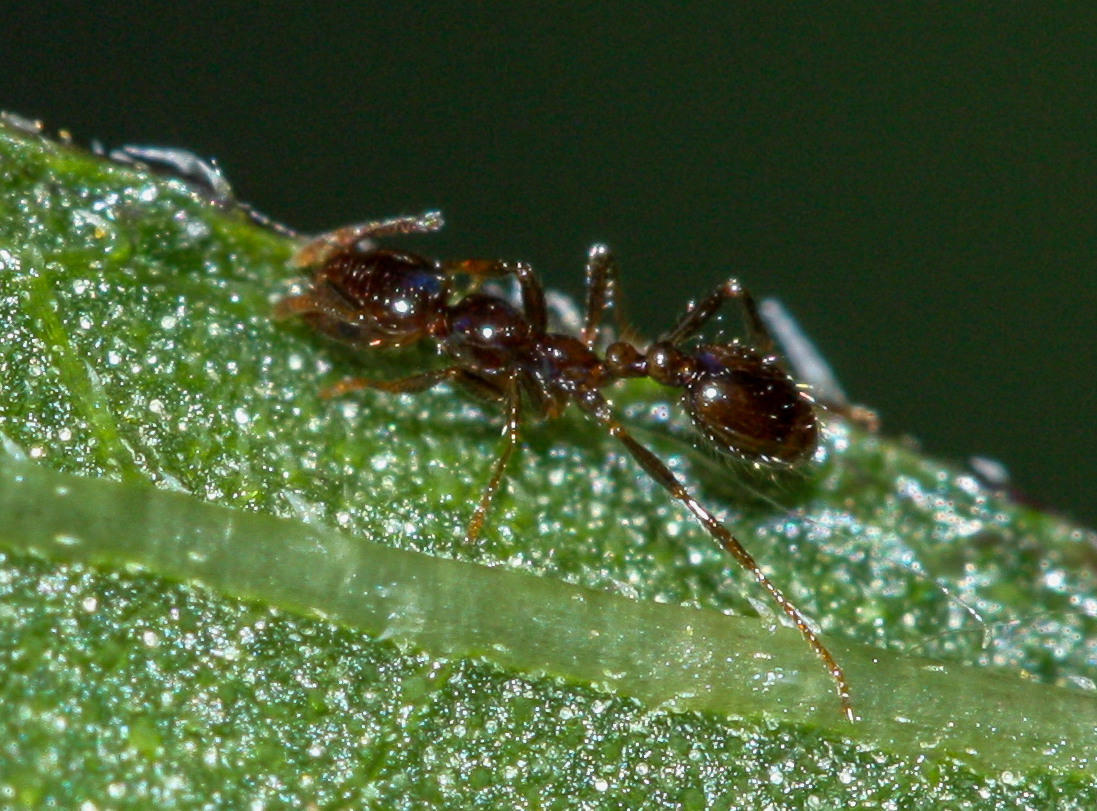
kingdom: Animalia
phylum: Arthropoda
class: Insecta
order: Hymenoptera
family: Formicidae
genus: Solenopsis
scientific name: Solenopsis xyloni
